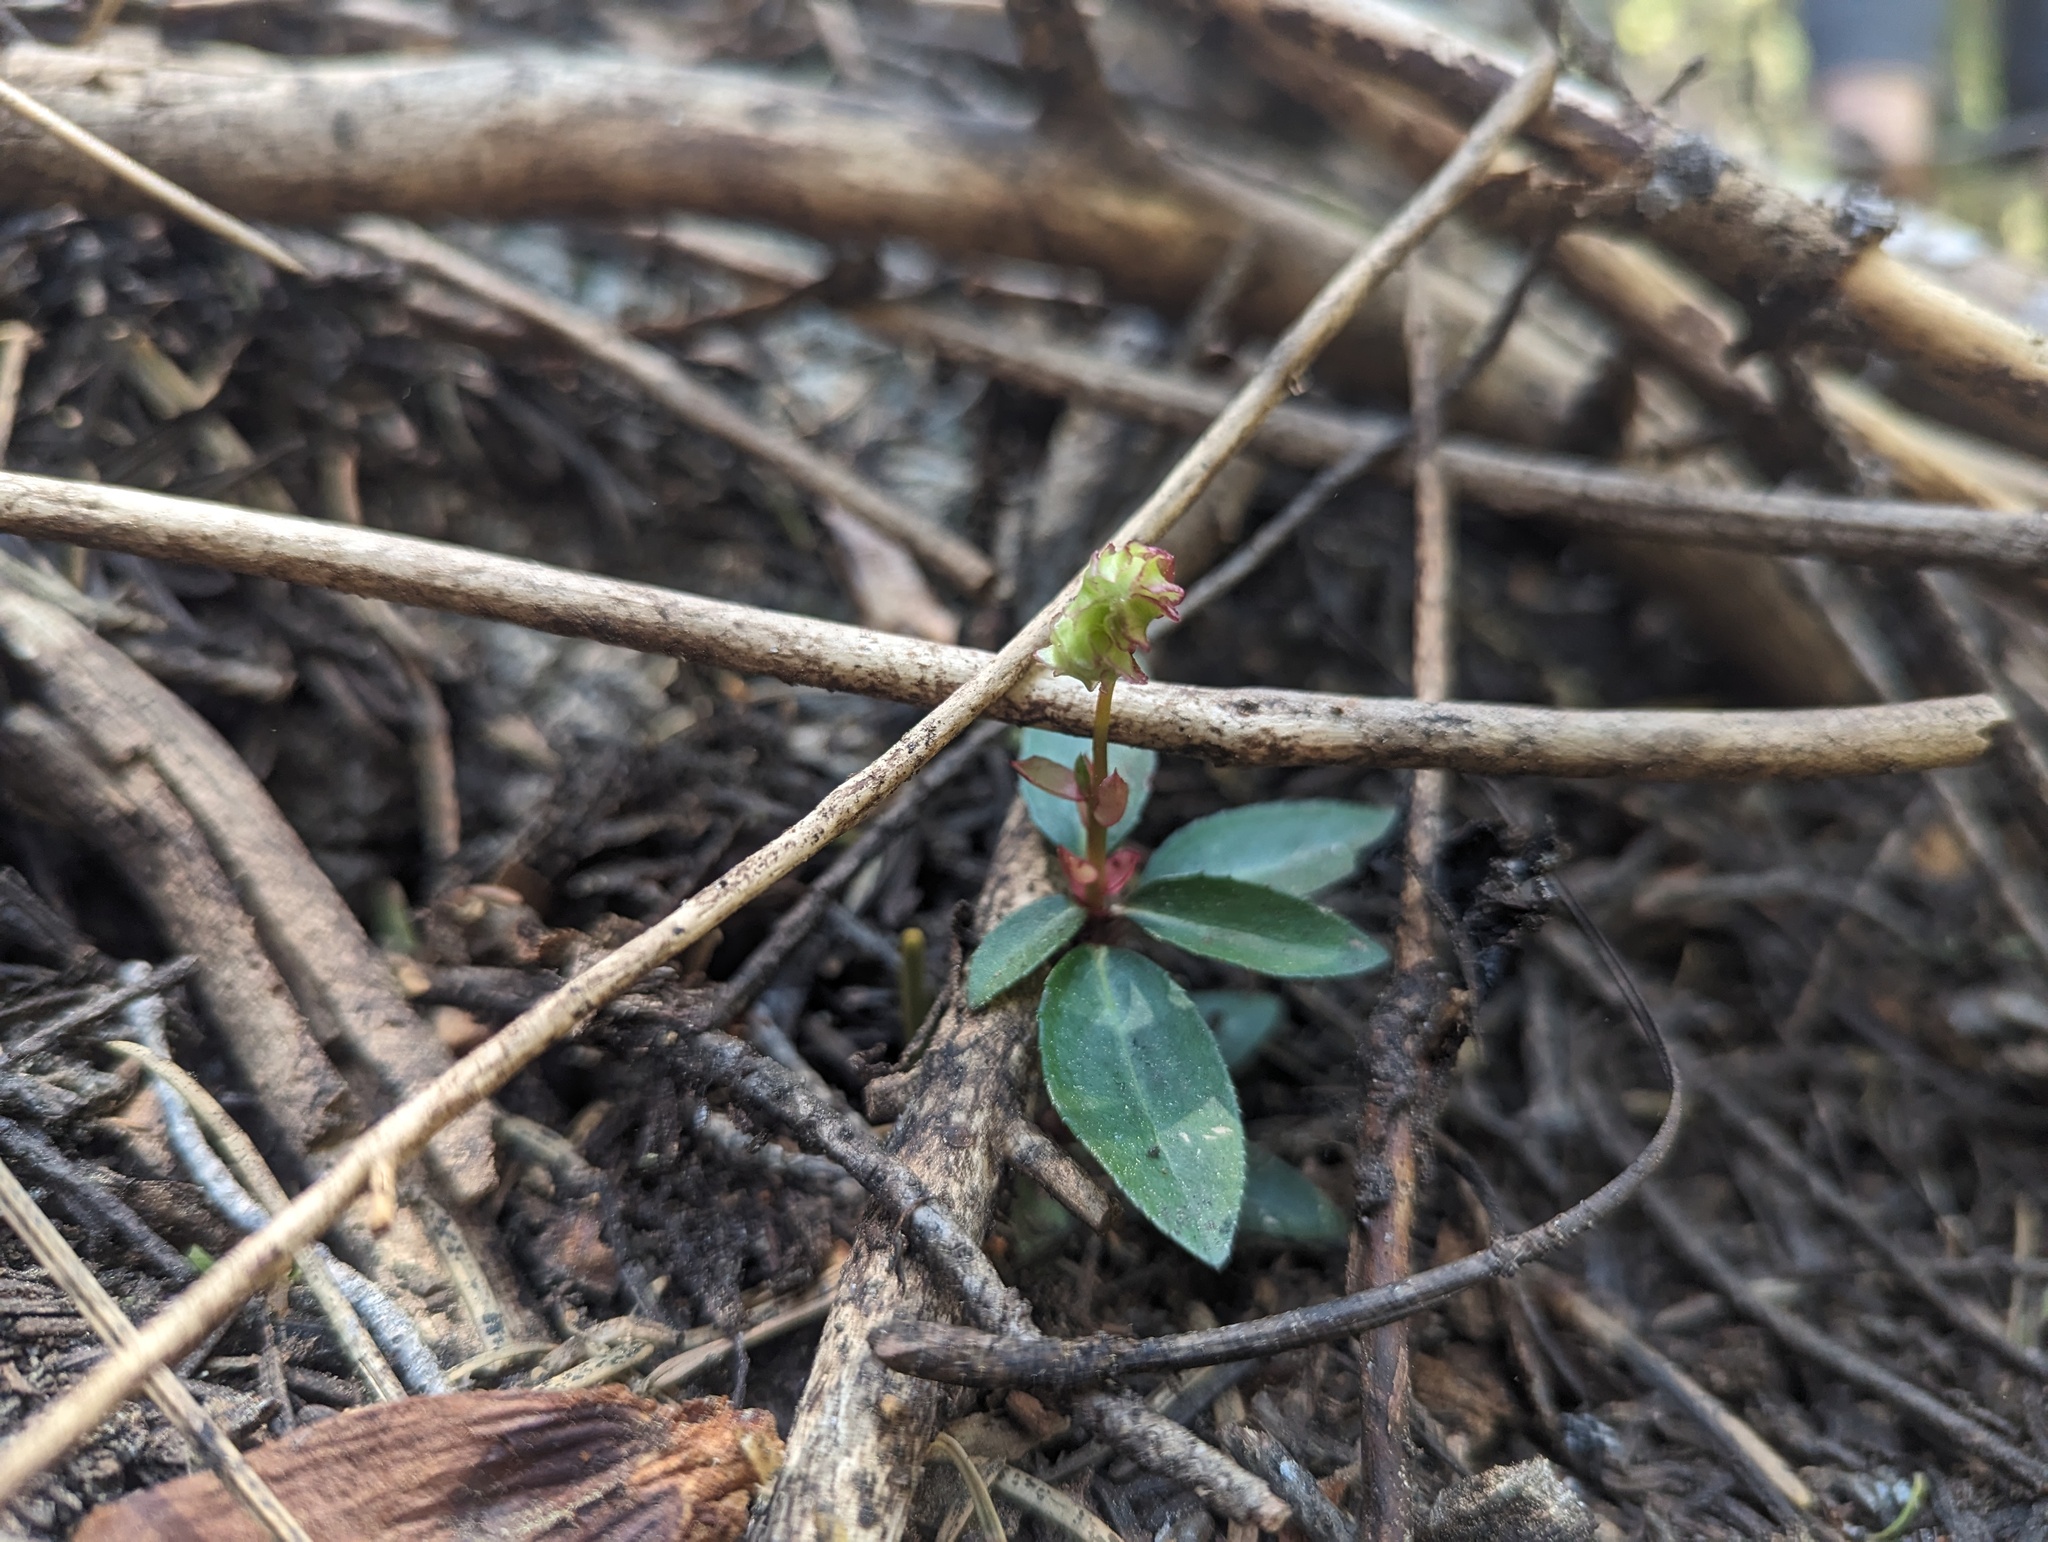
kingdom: Plantae
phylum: Tracheophyta
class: Magnoliopsida
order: Ericales
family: Ericaceae
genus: Chimaphila
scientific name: Chimaphila menziesii
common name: Menzies' pipsissewa
